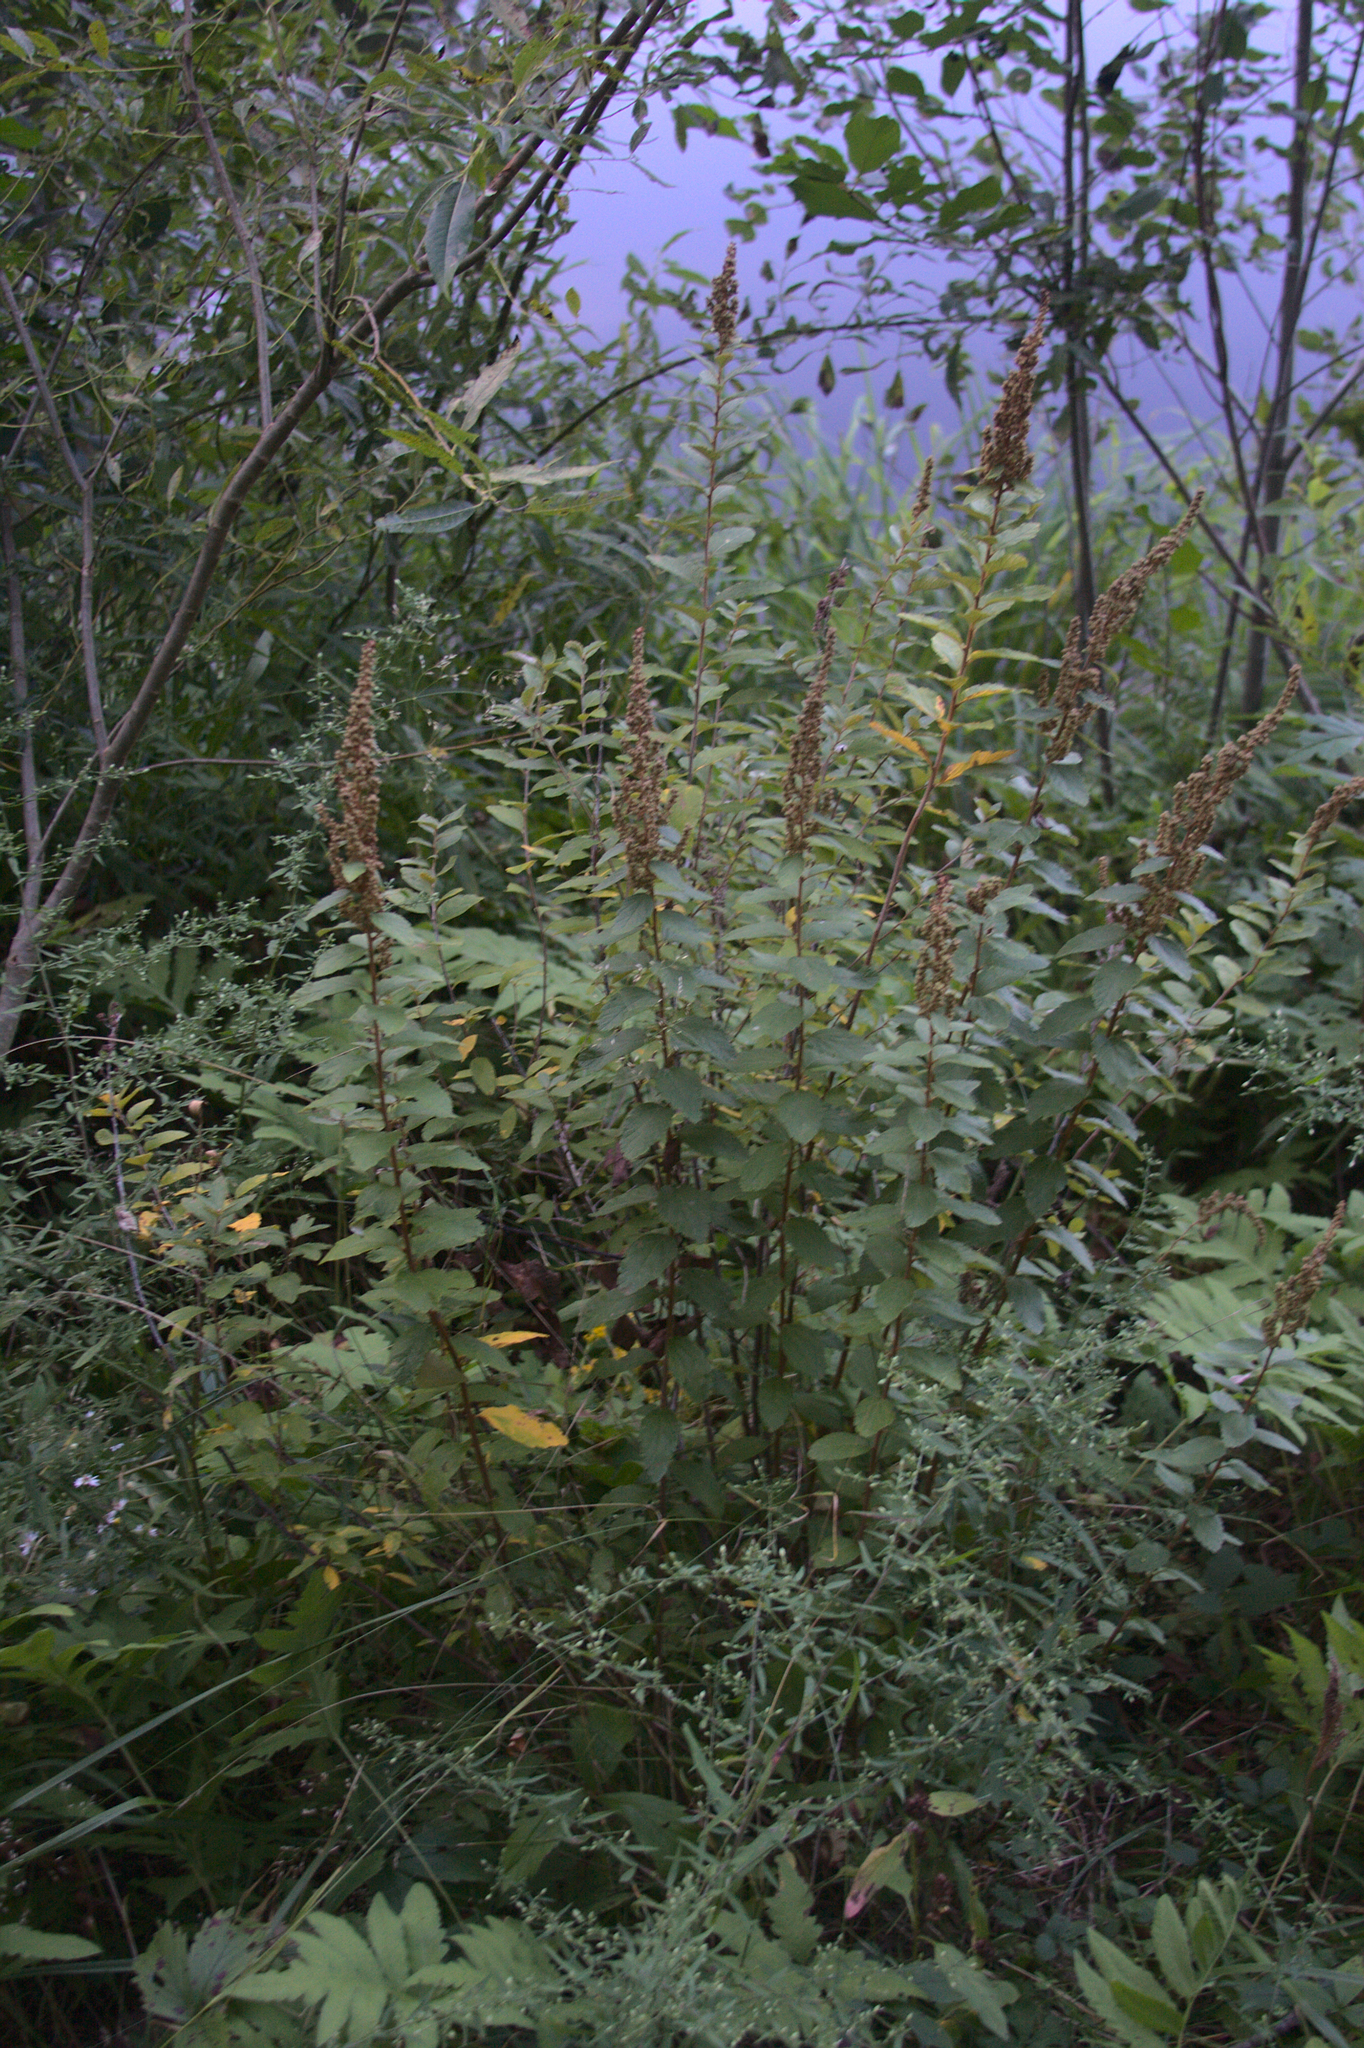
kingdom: Plantae
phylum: Tracheophyta
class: Magnoliopsida
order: Rosales
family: Rosaceae
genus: Spiraea
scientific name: Spiraea tomentosa
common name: Hardhack
